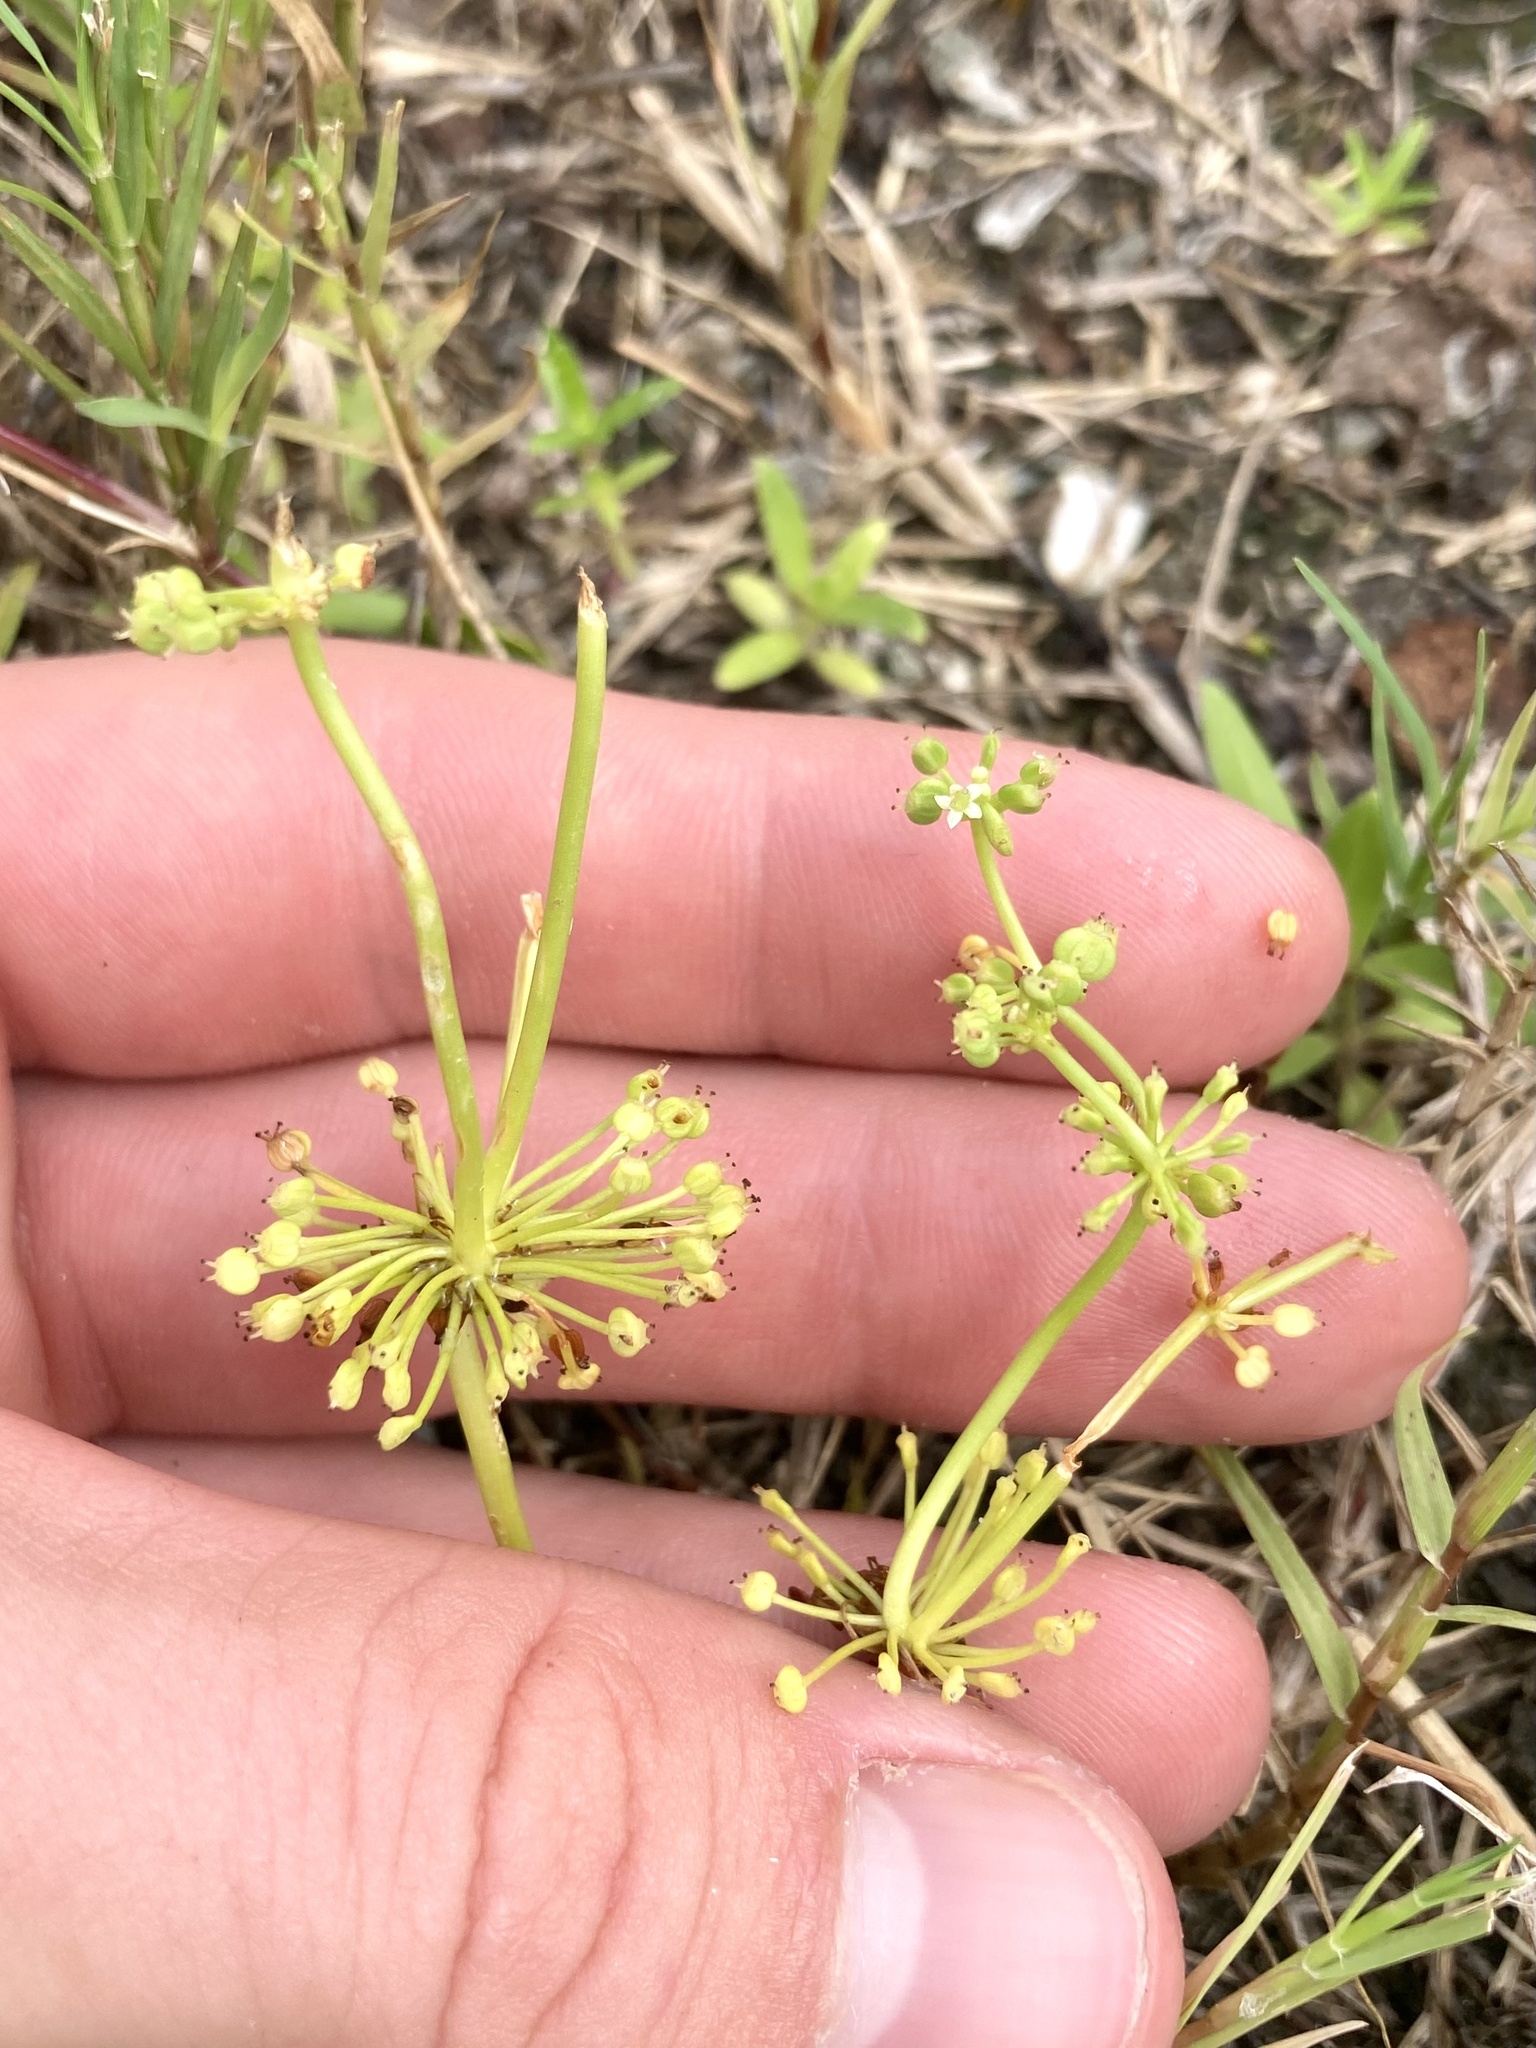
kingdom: Plantae
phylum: Tracheophyta
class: Magnoliopsida
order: Apiales
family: Araliaceae
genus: Hydrocotyle
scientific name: Hydrocotyle bonariensis
